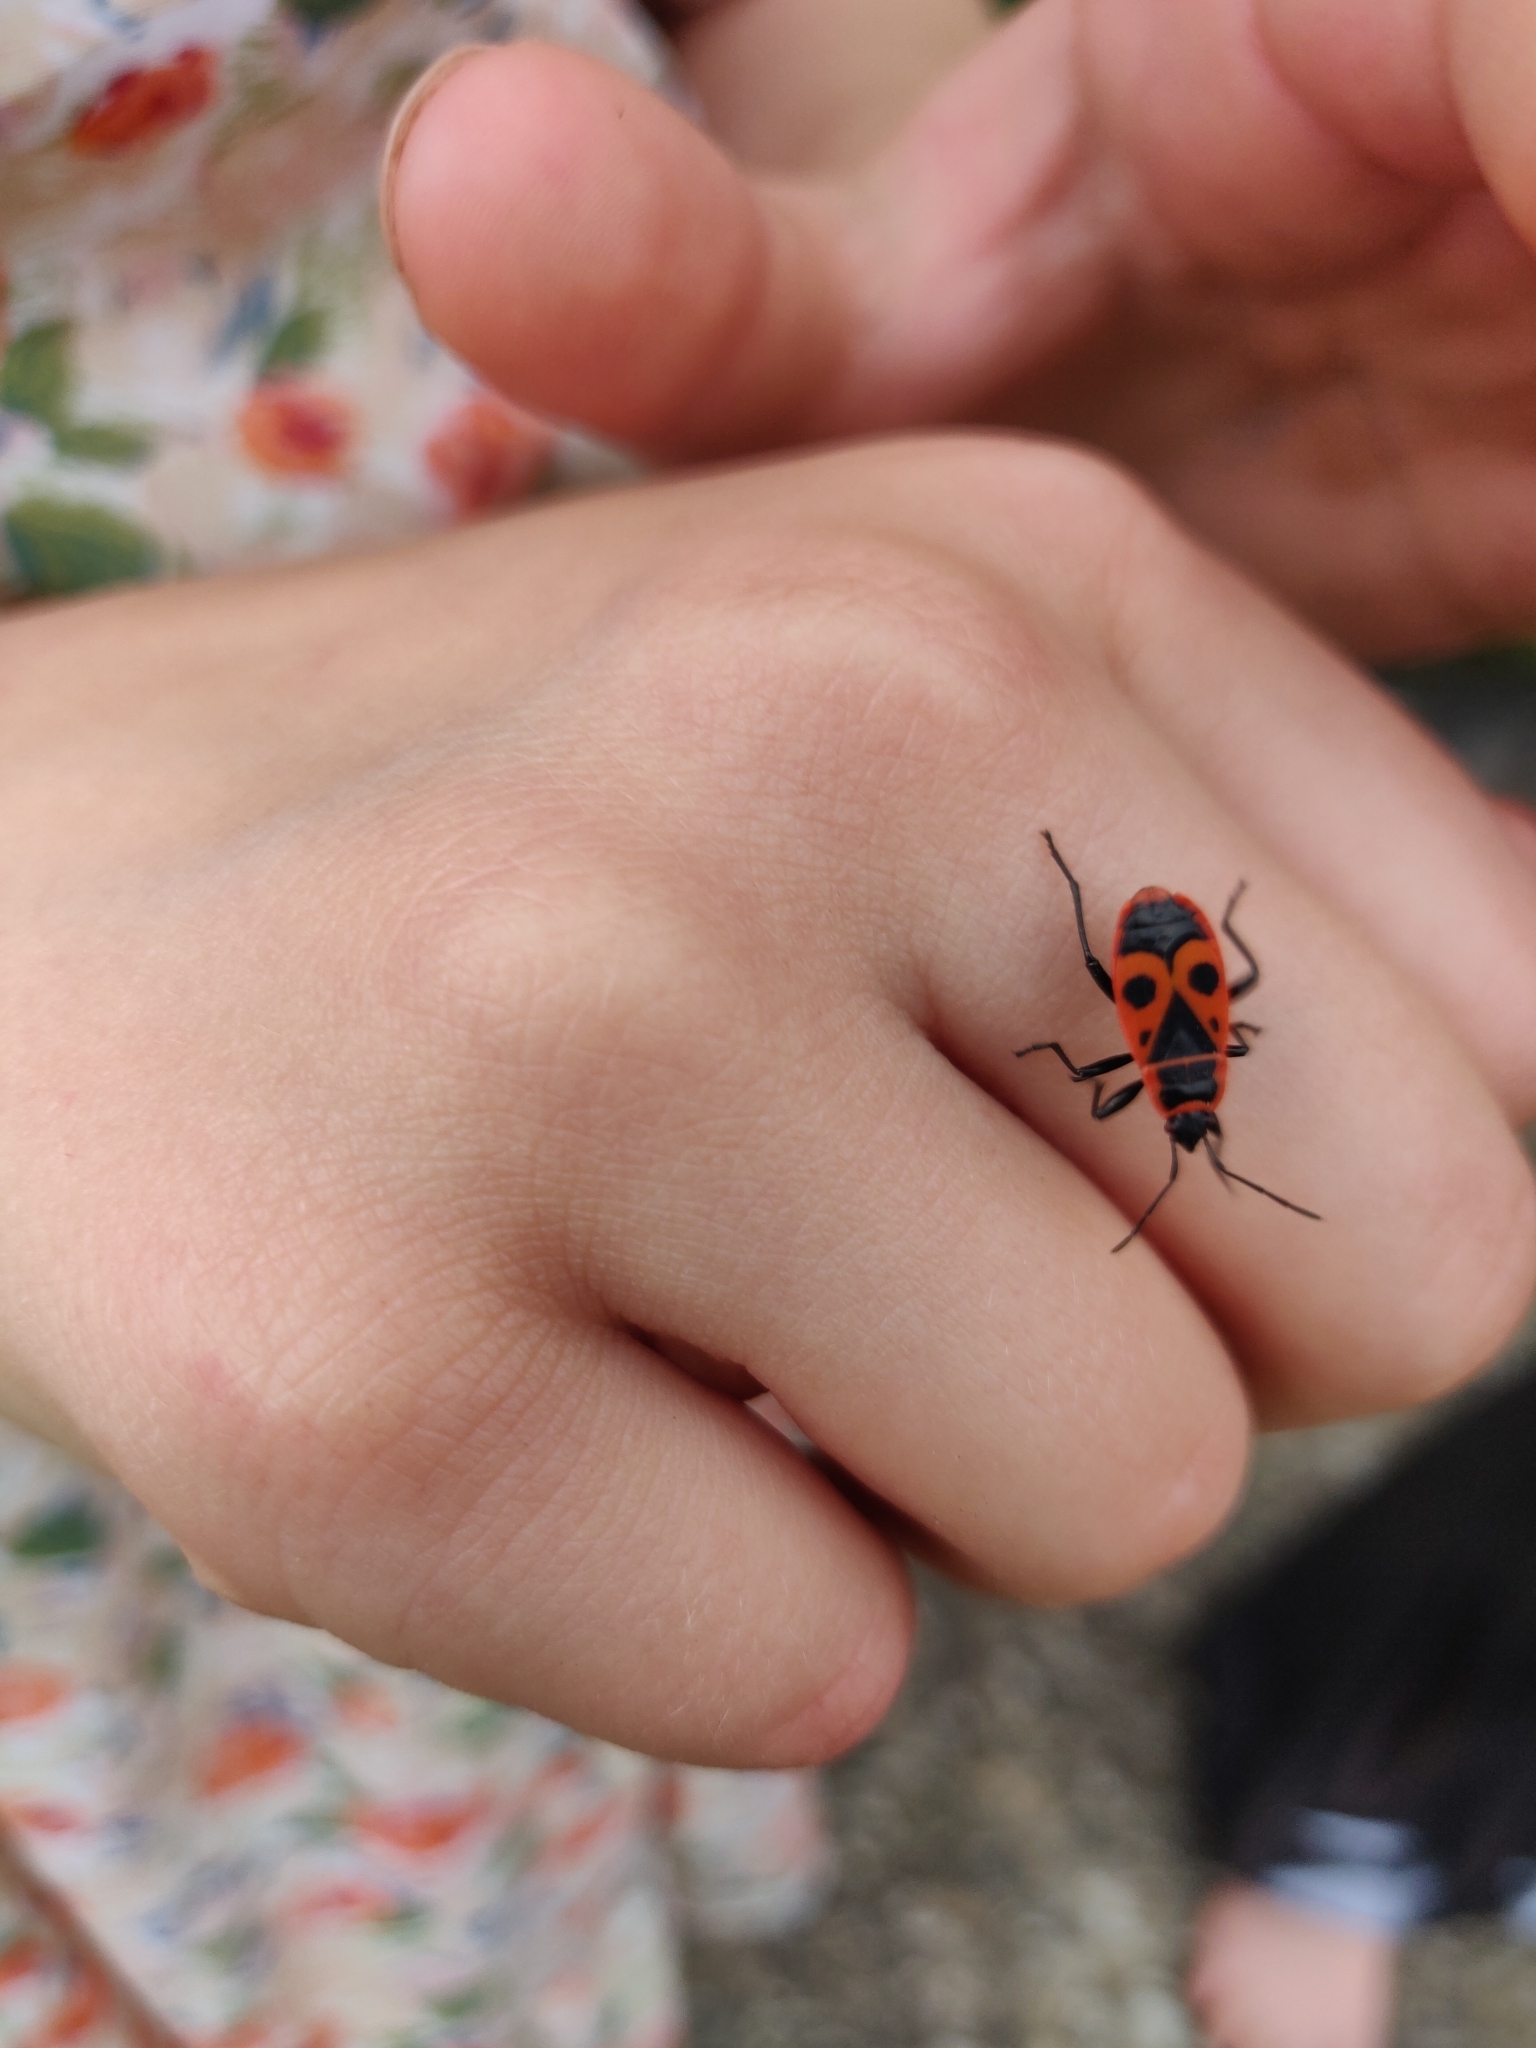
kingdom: Animalia
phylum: Arthropoda
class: Insecta
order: Hemiptera
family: Pyrrhocoridae
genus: Pyrrhocoris
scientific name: Pyrrhocoris apterus
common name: Firebug
